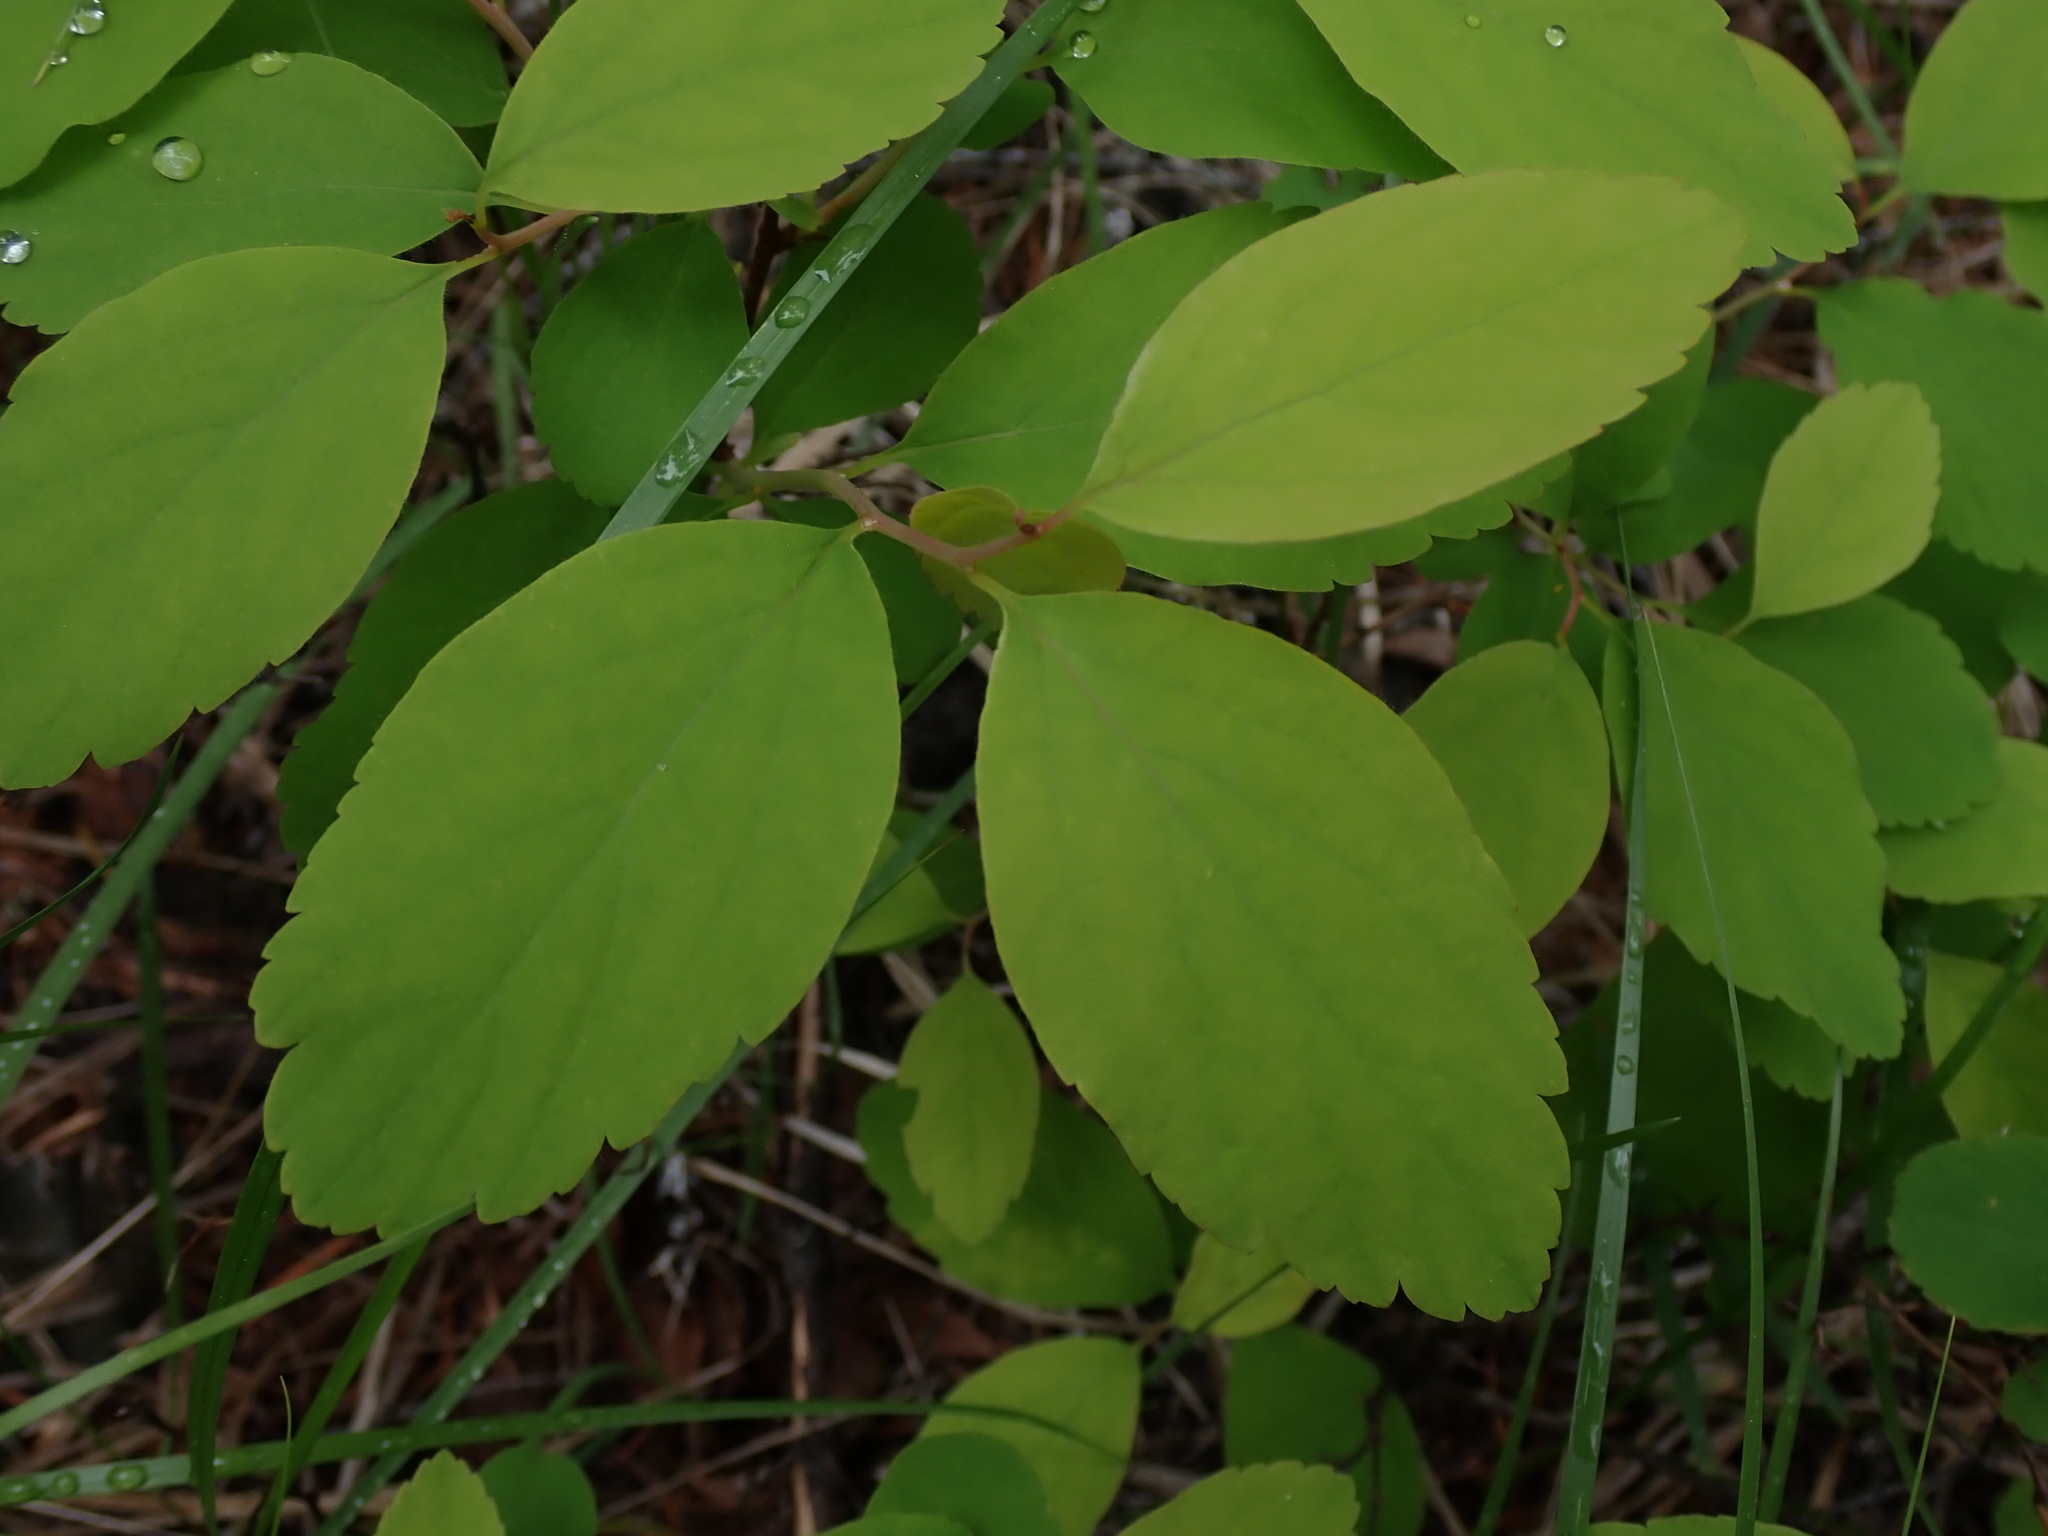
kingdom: Plantae
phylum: Tracheophyta
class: Magnoliopsida
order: Rosales
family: Rosaceae
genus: Spiraea
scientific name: Spiraea lucida
